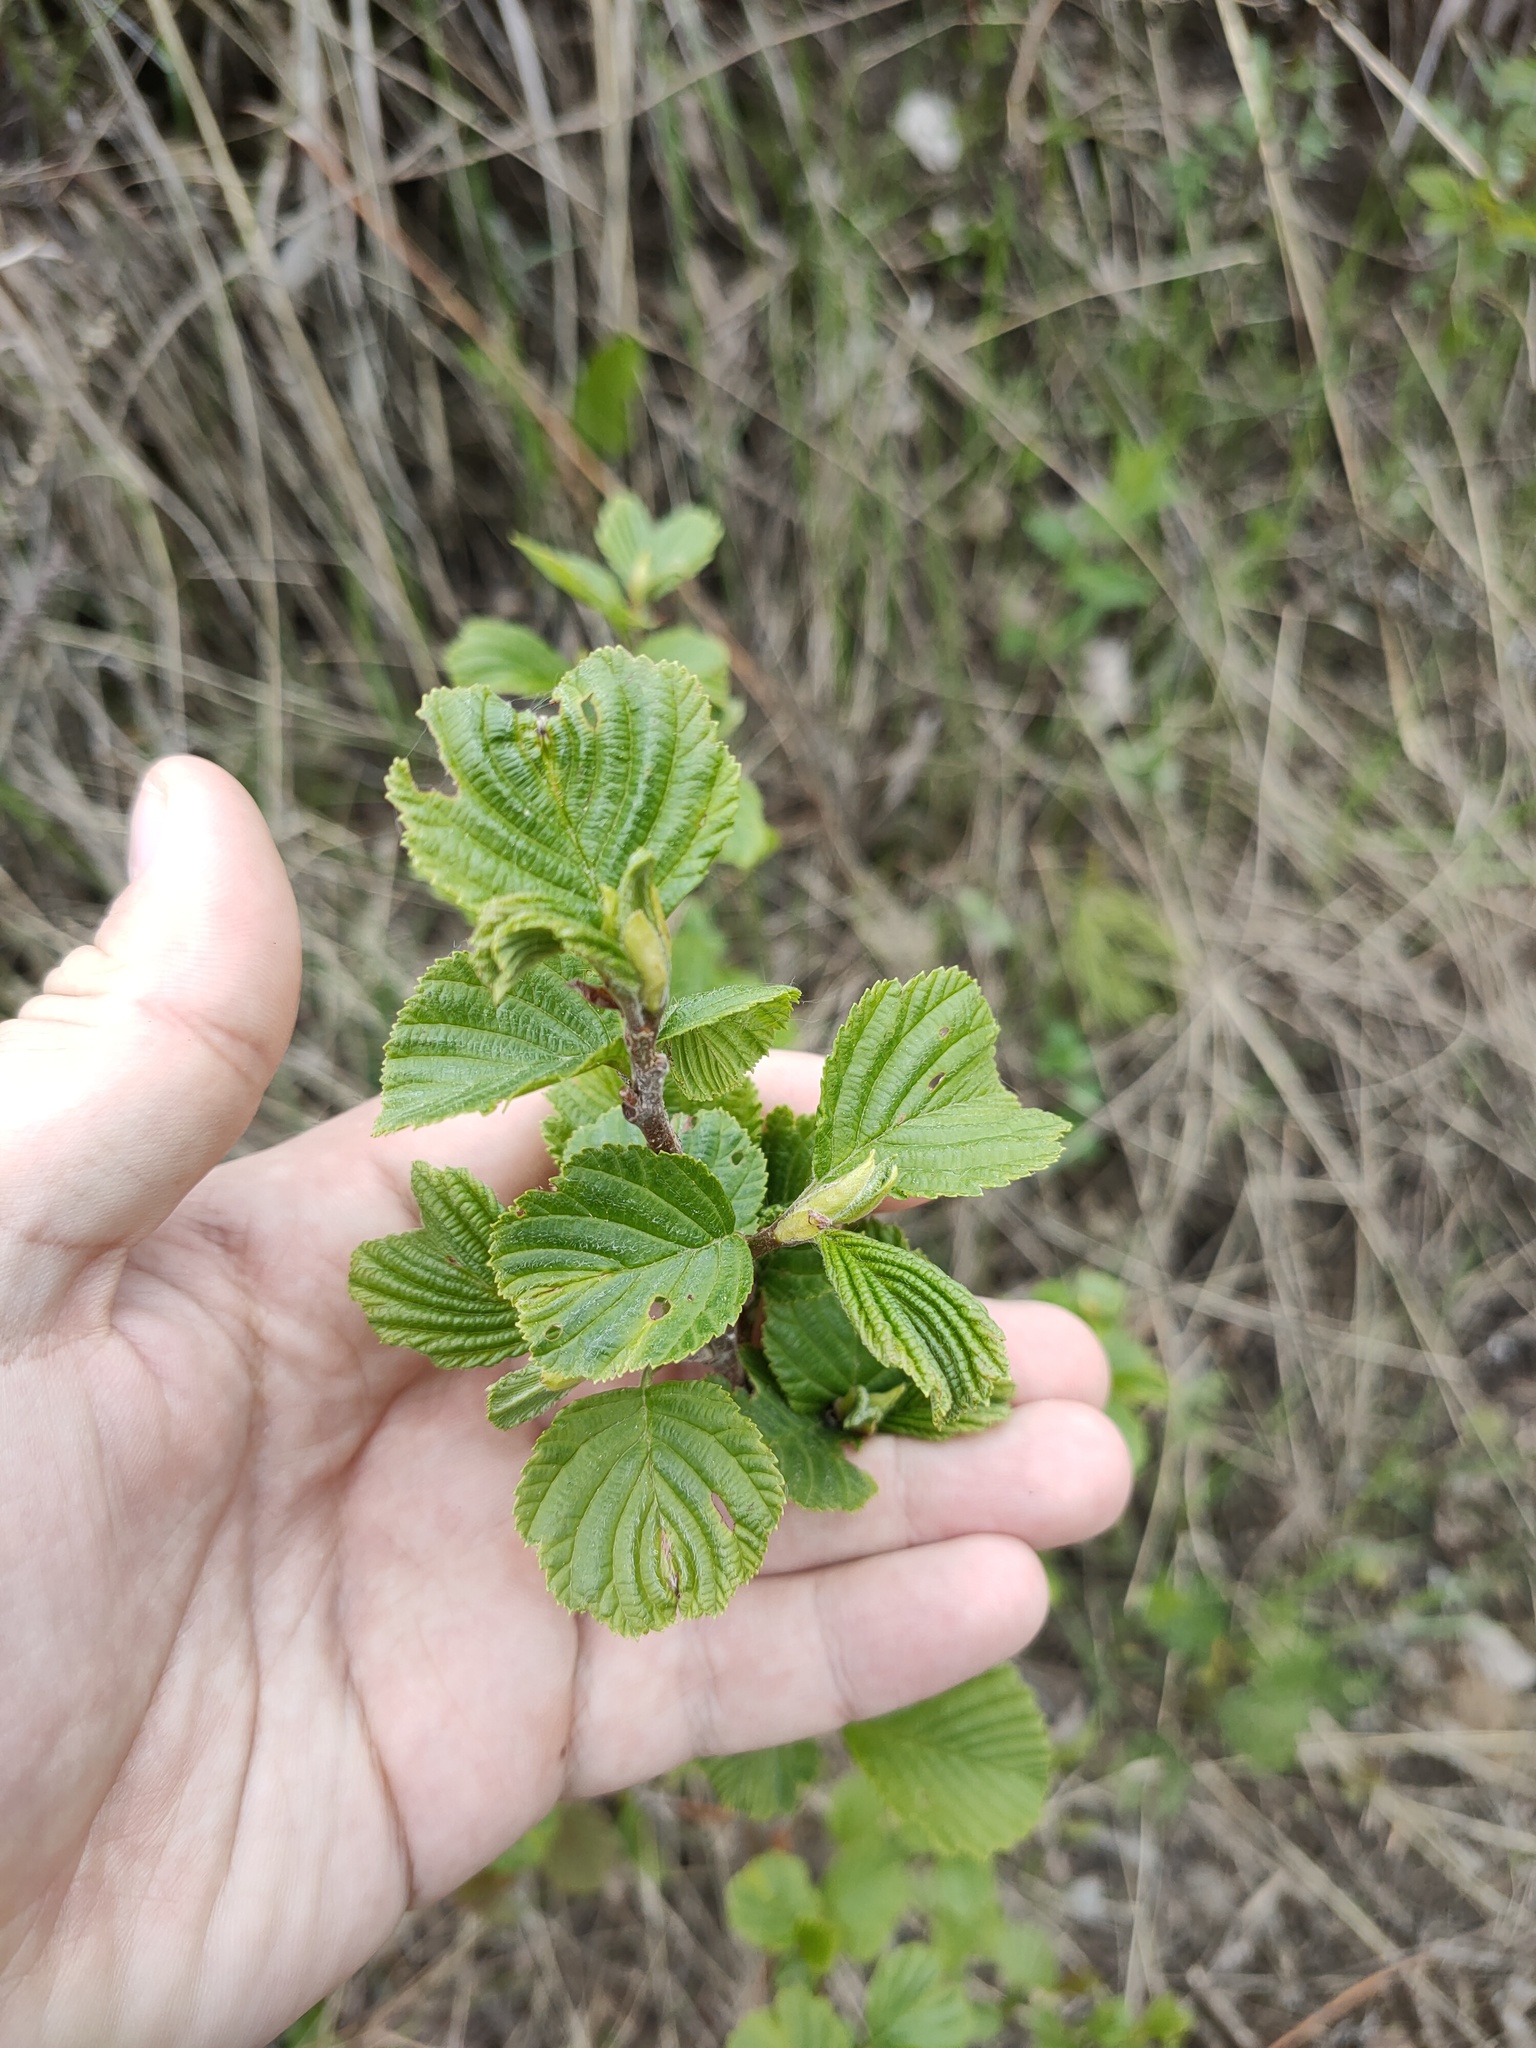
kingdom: Plantae
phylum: Tracheophyta
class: Magnoliopsida
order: Fagales
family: Betulaceae
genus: Alnus
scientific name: Alnus glutinosa
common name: Black alder
